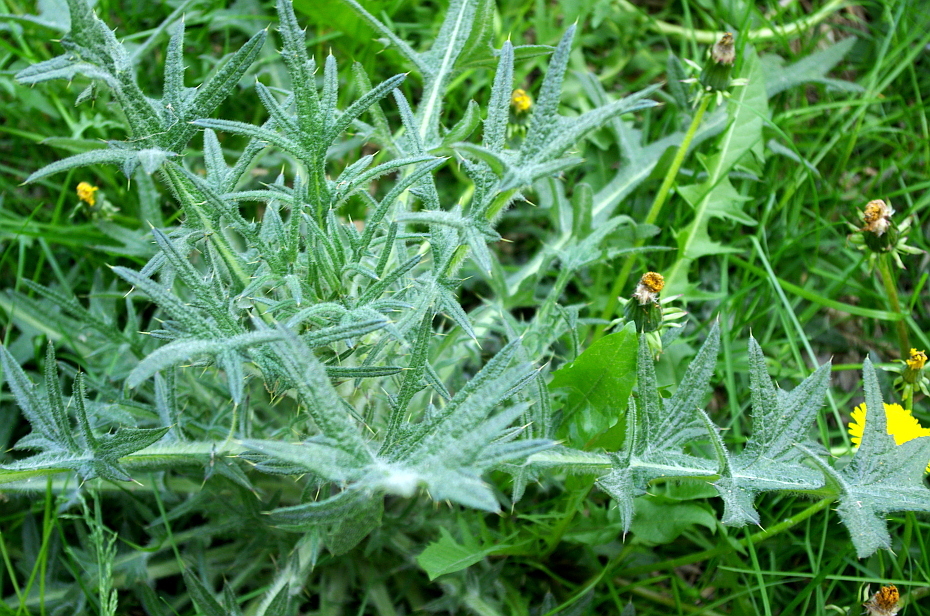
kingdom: Plantae
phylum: Tracheophyta
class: Magnoliopsida
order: Asterales
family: Asteraceae
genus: Cirsium
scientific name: Cirsium vulgare
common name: Bull thistle
